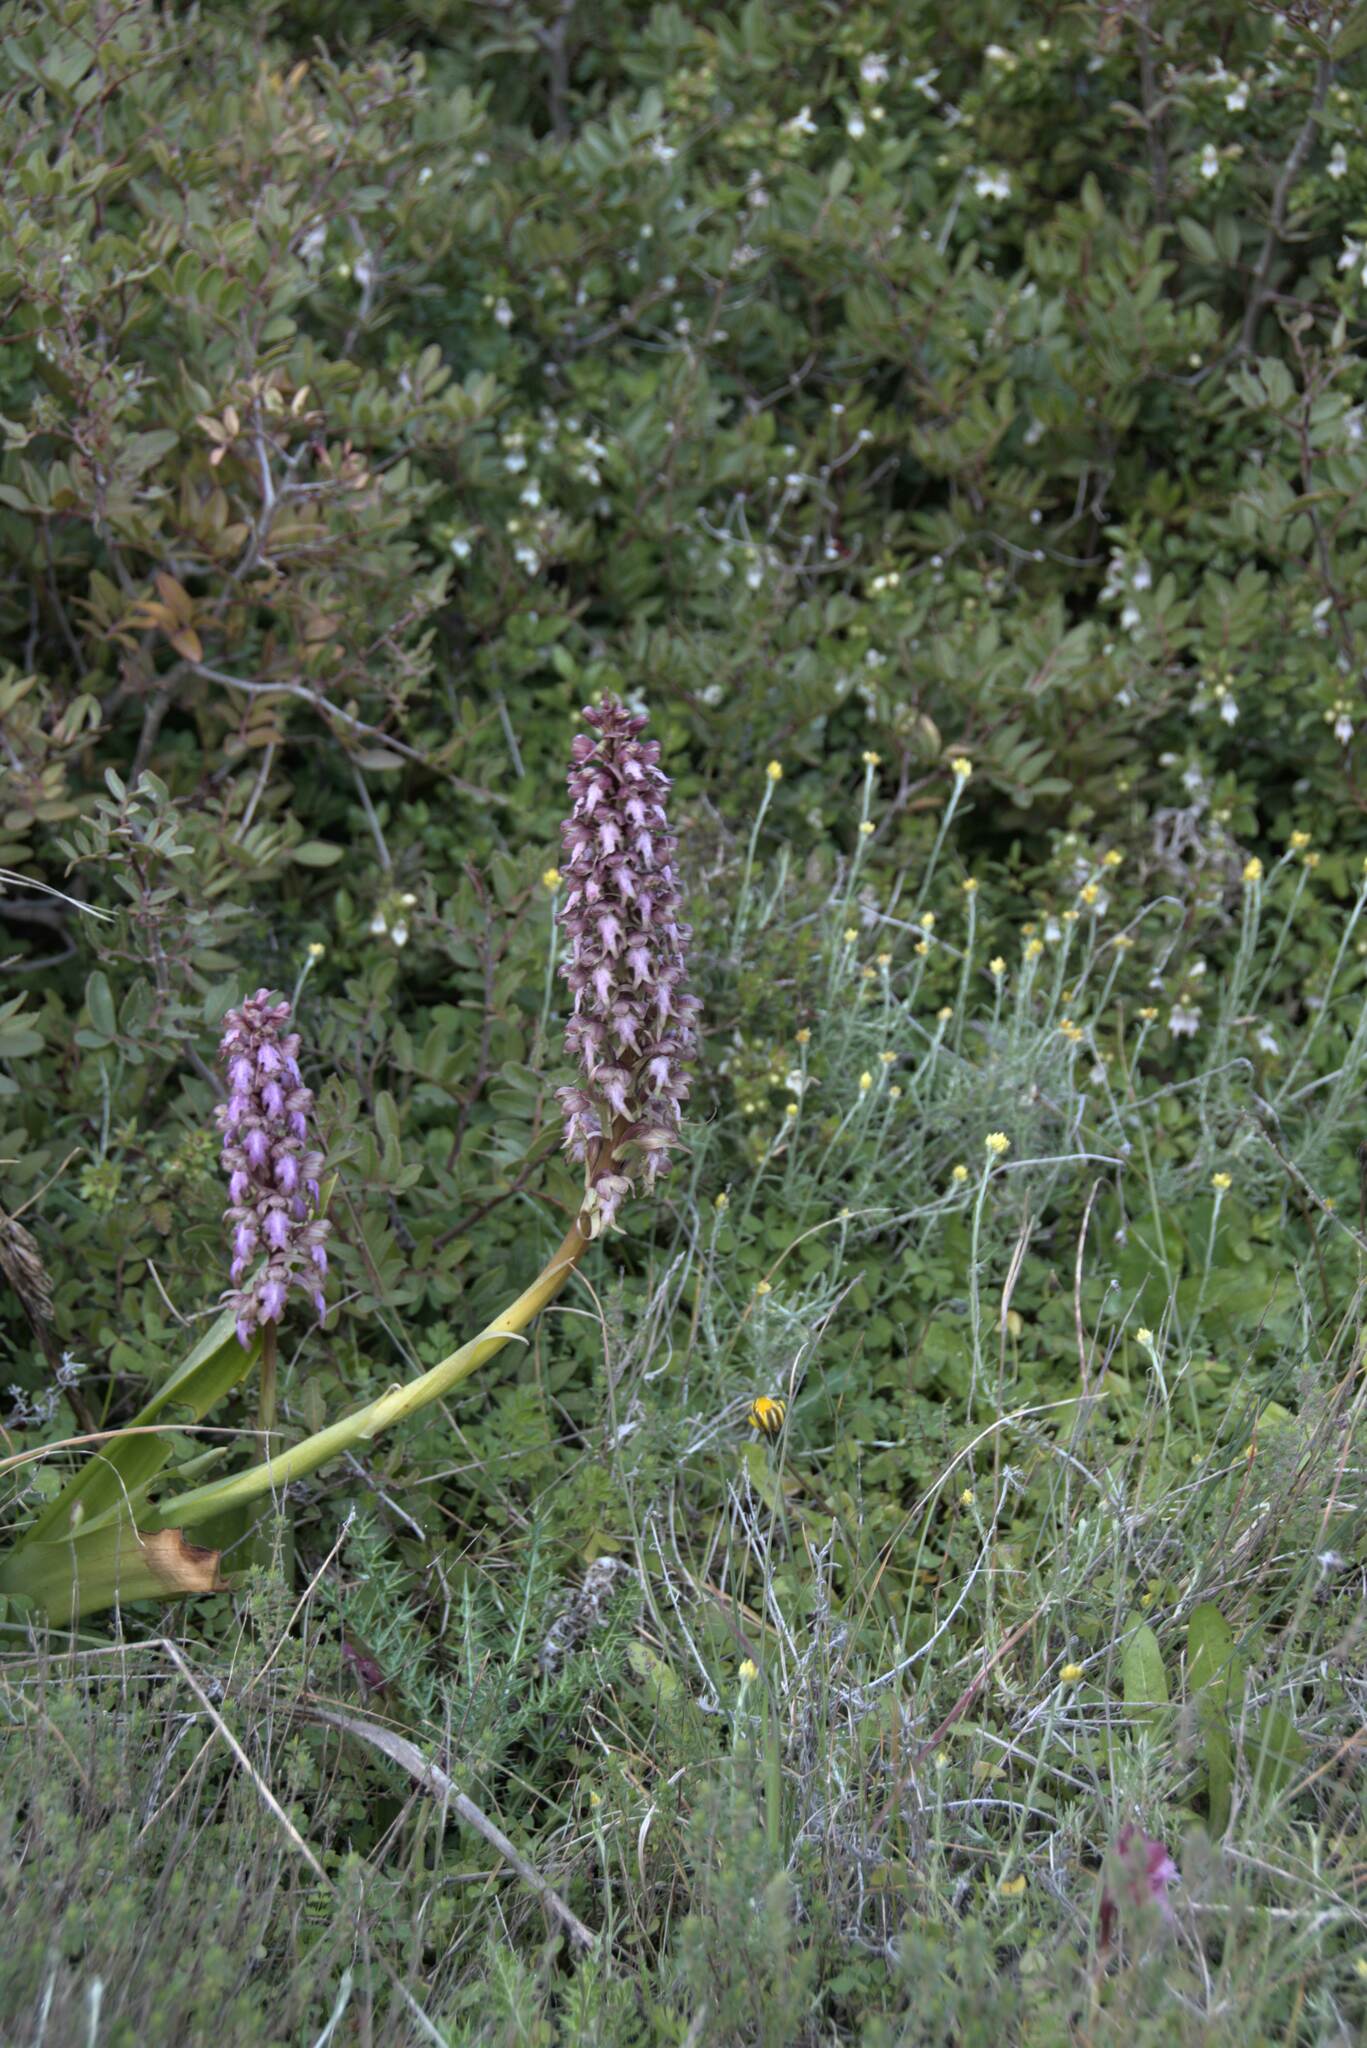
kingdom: Plantae
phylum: Tracheophyta
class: Liliopsida
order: Asparagales
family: Orchidaceae
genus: Himantoglossum
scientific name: Himantoglossum robertianum
